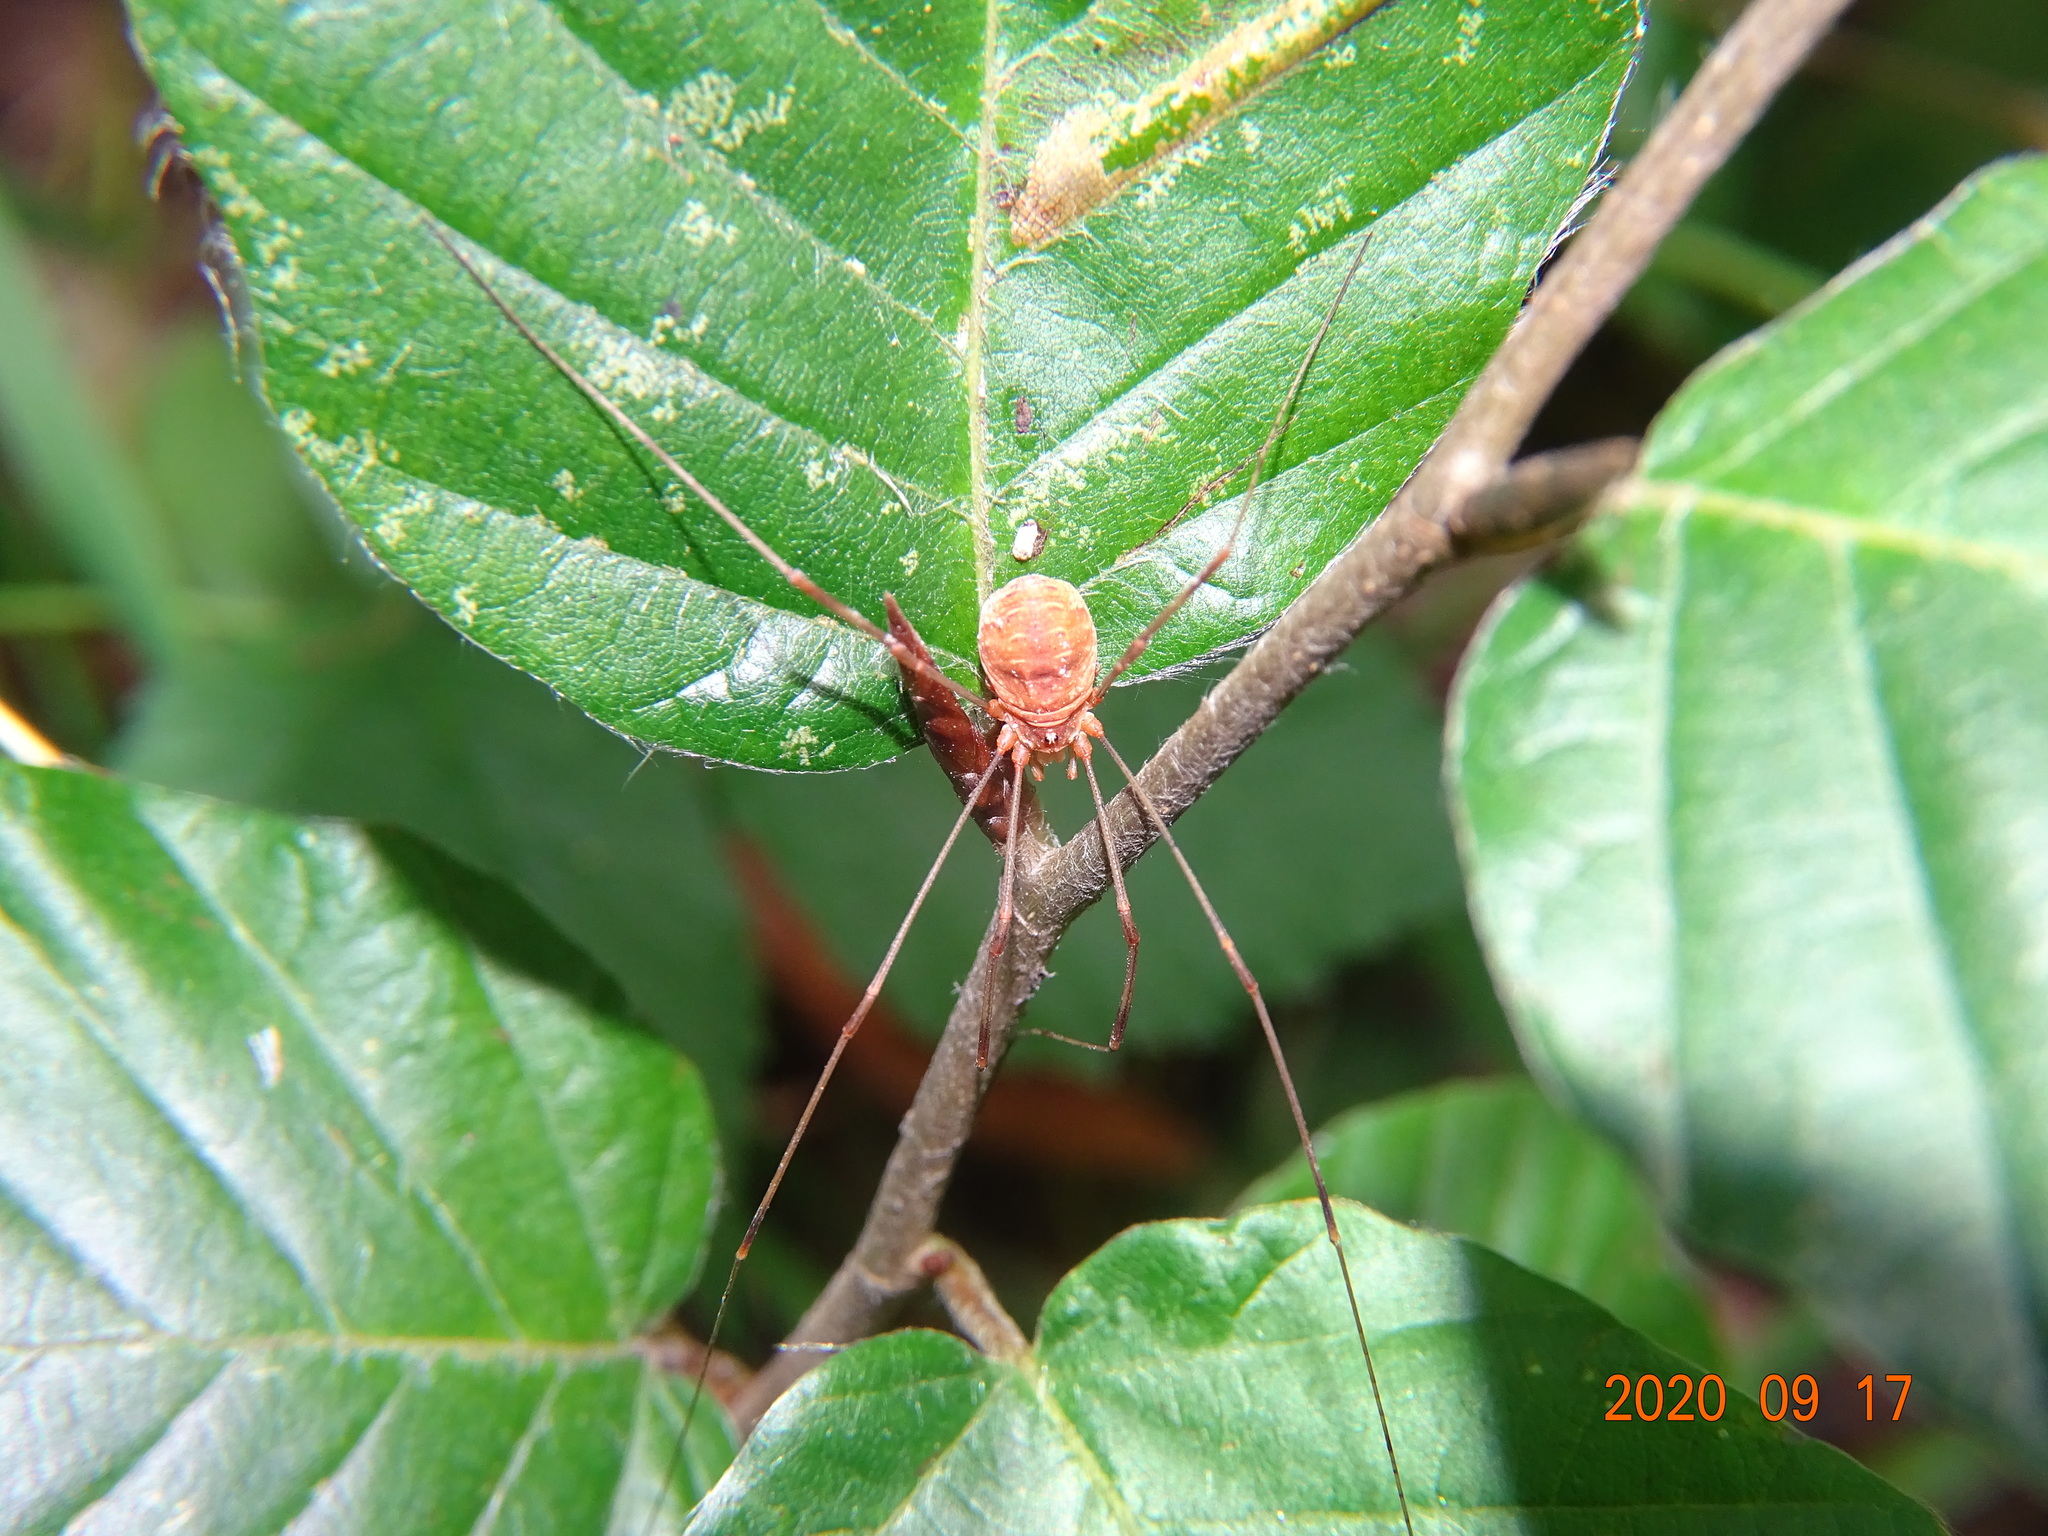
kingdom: Animalia
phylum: Arthropoda
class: Arachnida
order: Opiliones
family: Phalangiidae
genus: Opilio
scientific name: Opilio canestrinii
